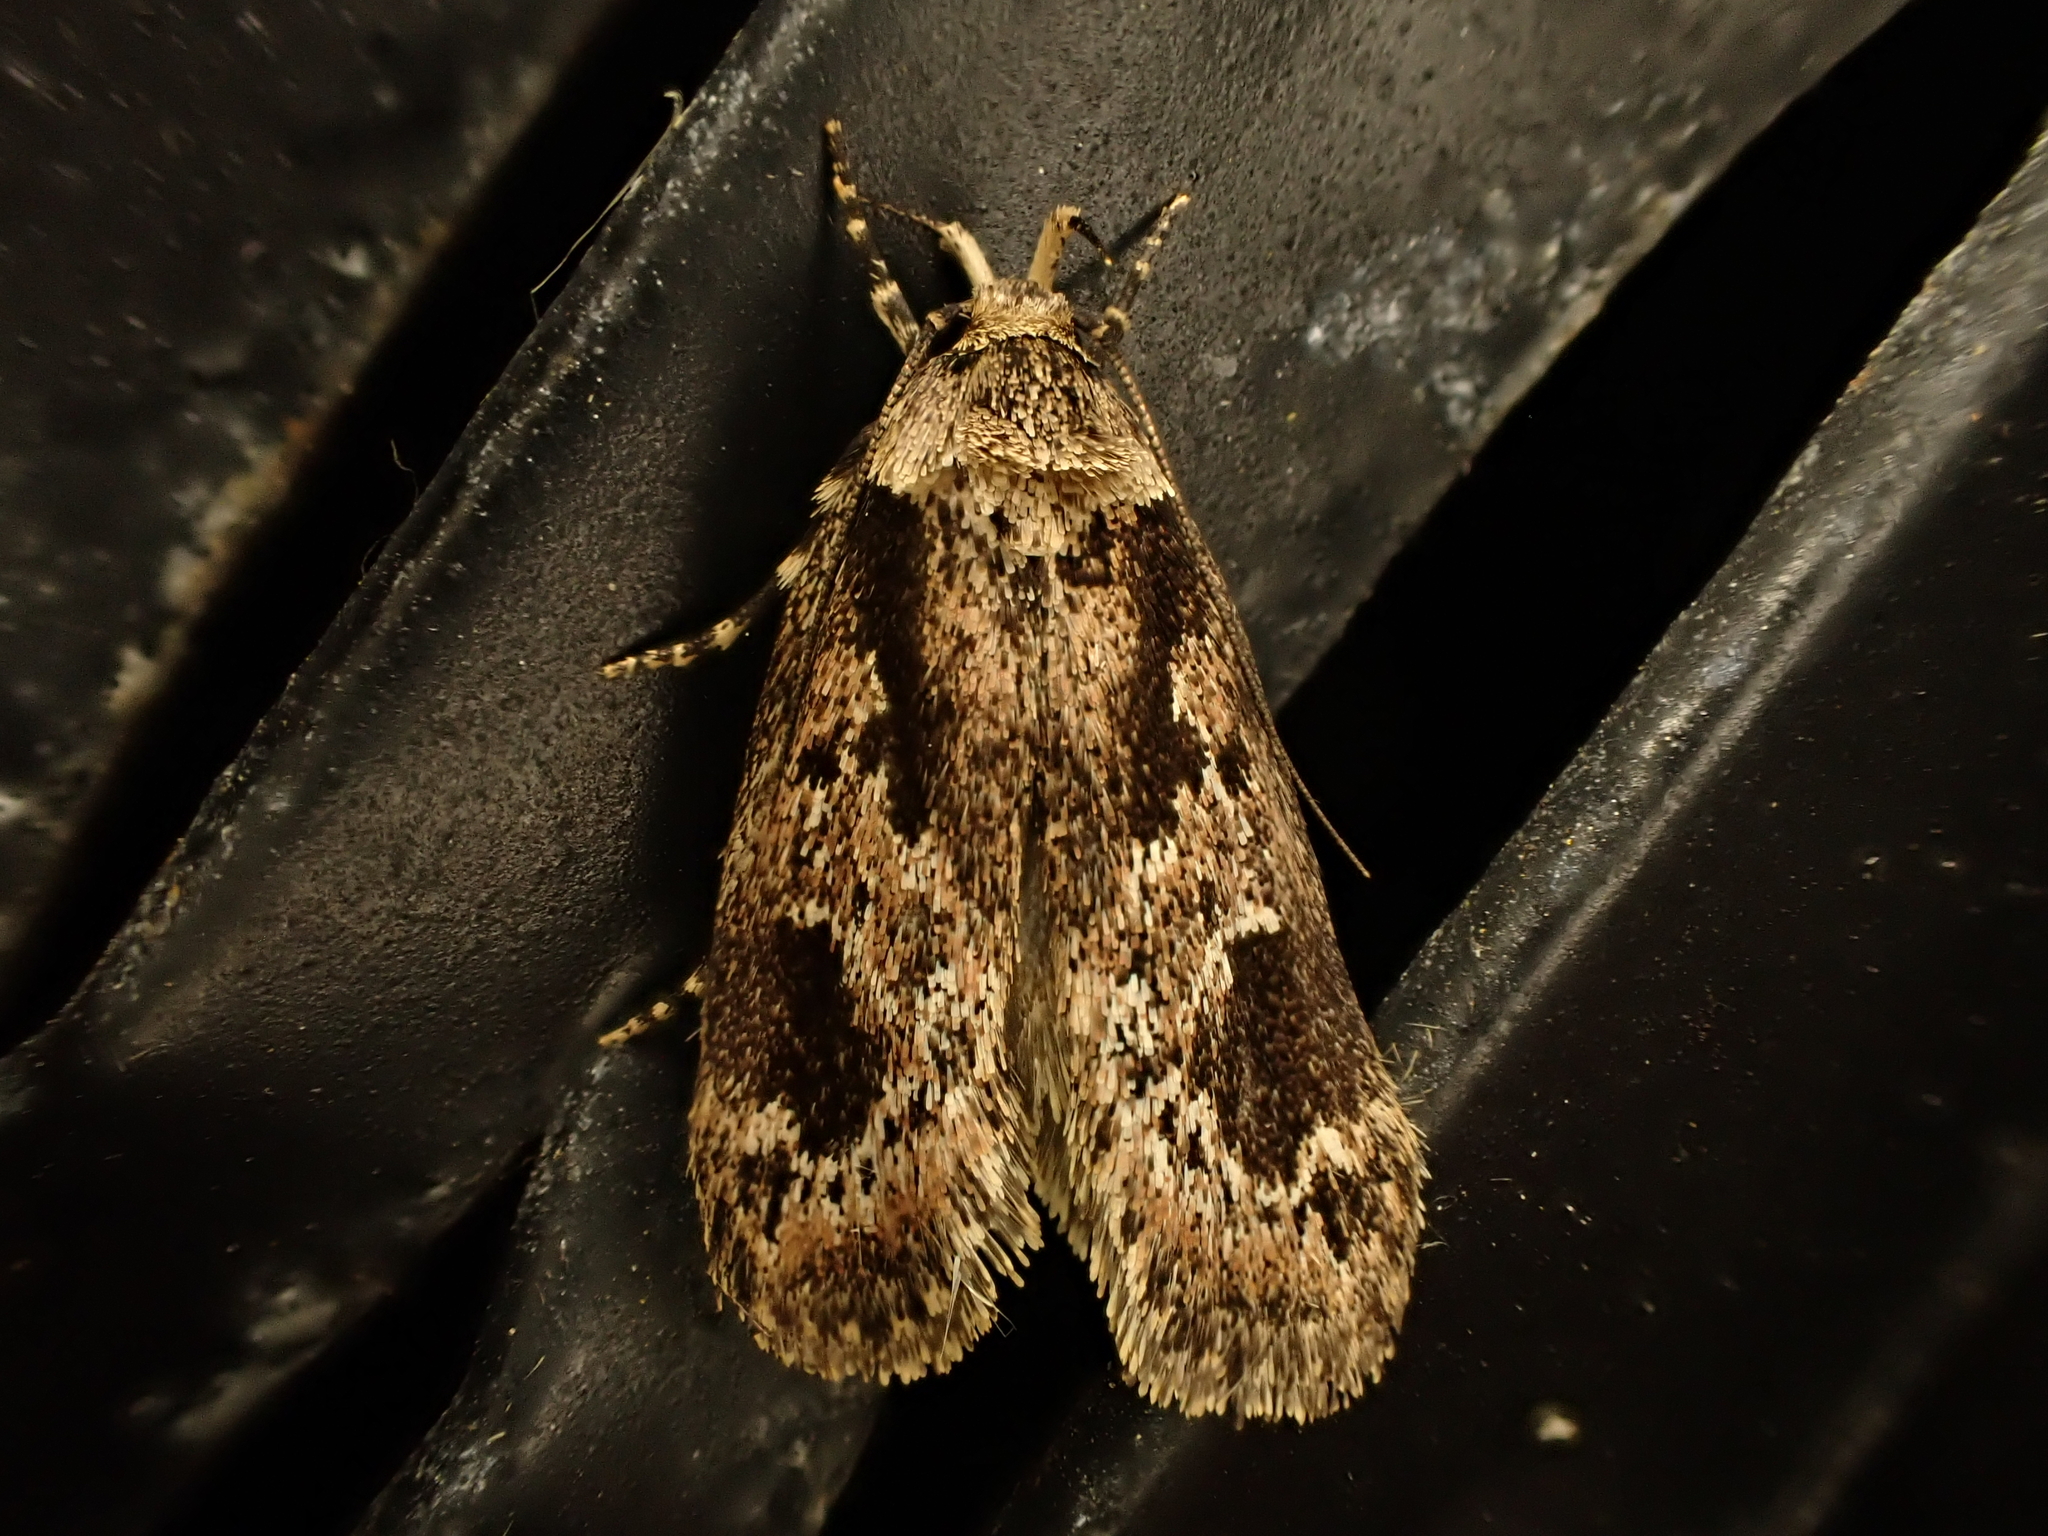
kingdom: Animalia
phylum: Arthropoda
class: Insecta
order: Lepidoptera
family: Oecophoridae
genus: Barea
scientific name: Barea consignatella
